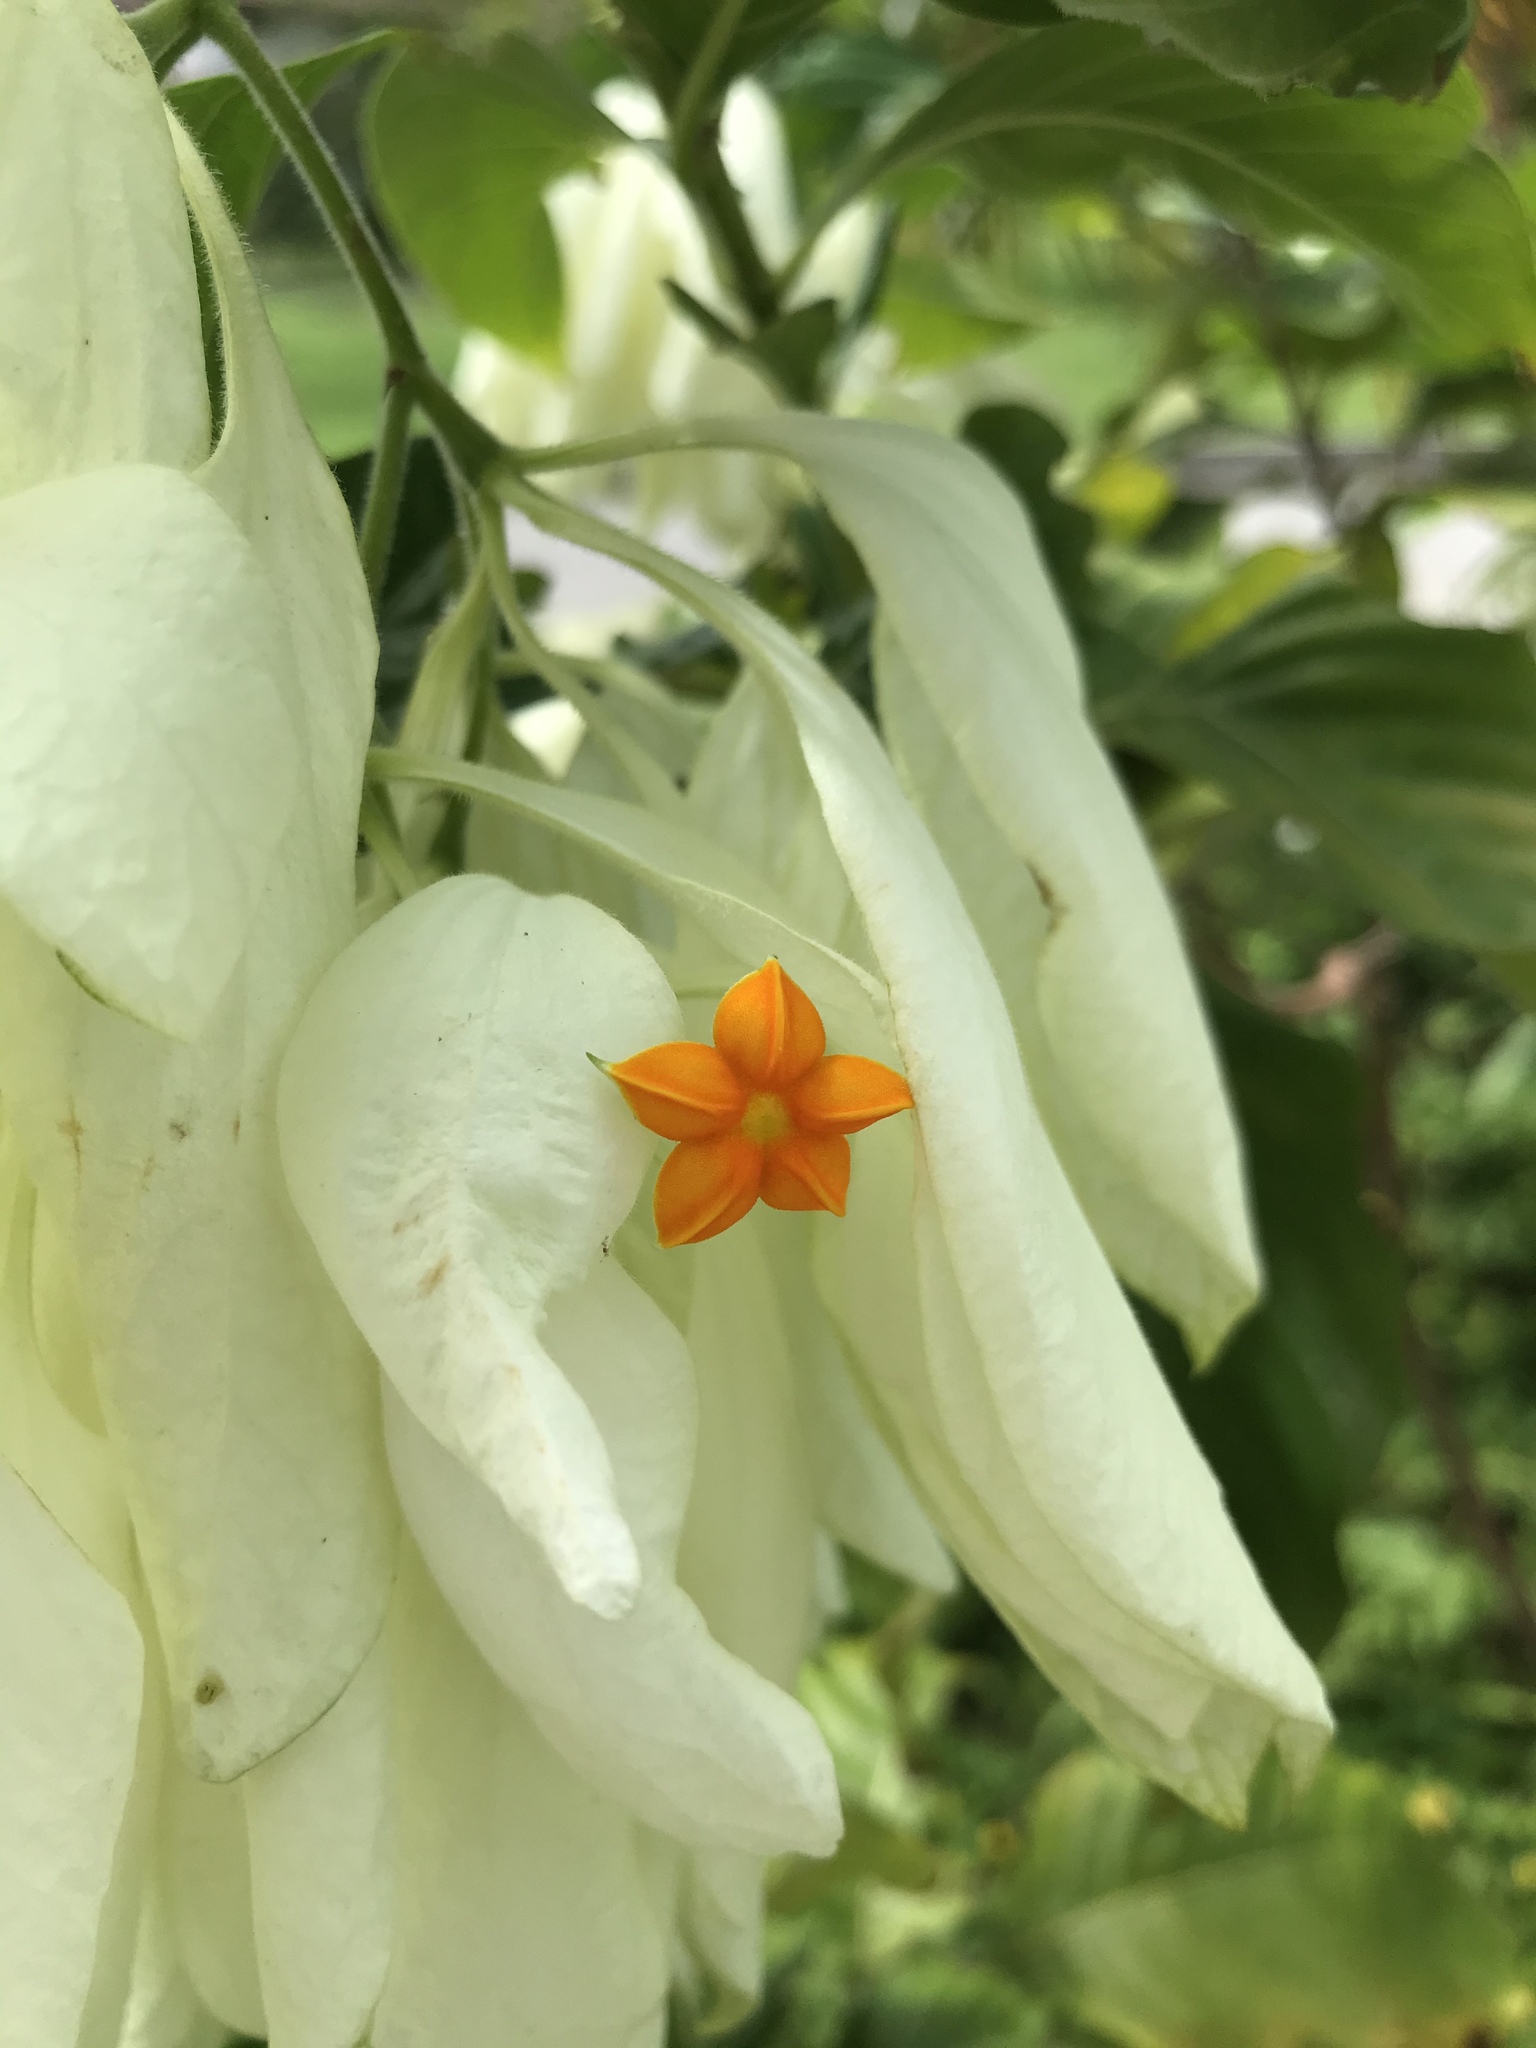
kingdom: Plantae
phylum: Tracheophyta
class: Magnoliopsida
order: Gentianales
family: Rubiaceae
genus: Mussaenda
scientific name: Mussaenda philippica
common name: Philippine mussaenda
